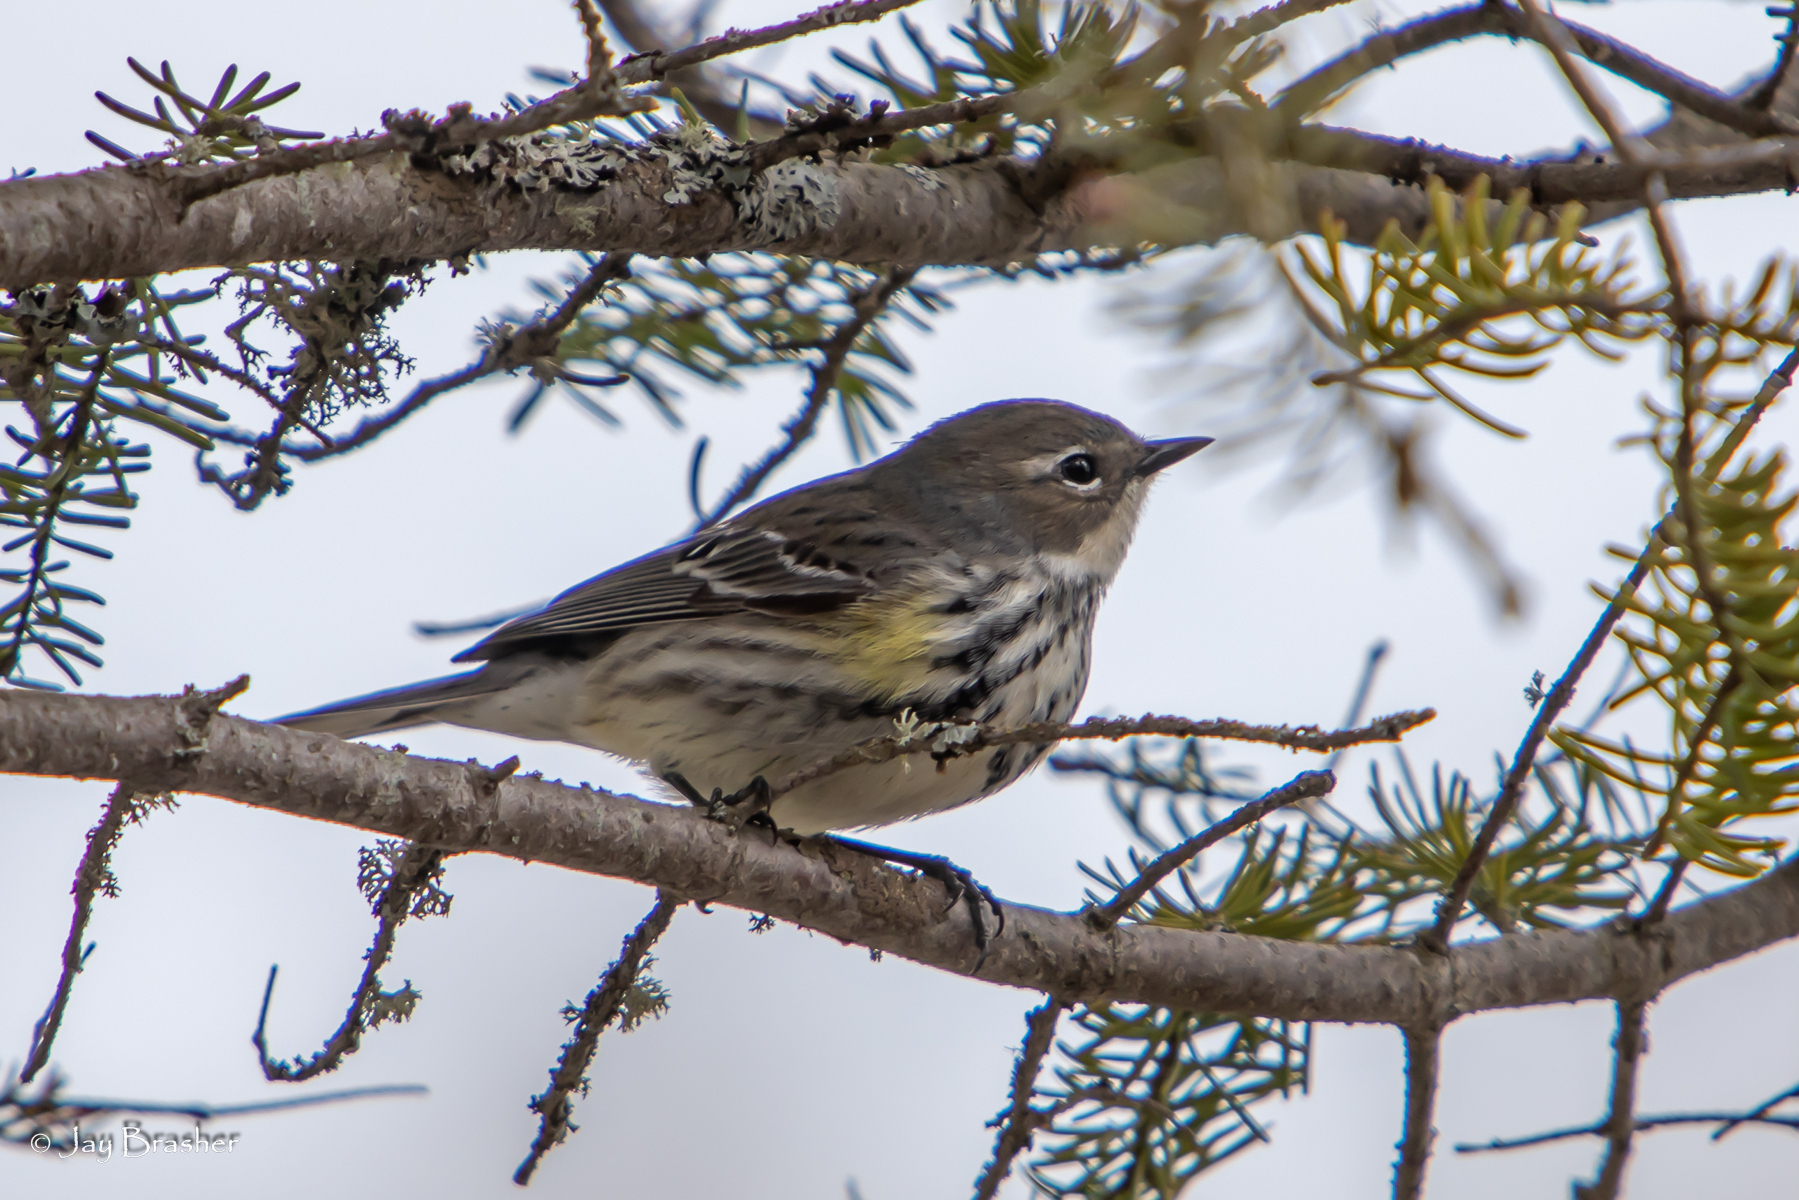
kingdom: Animalia
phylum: Chordata
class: Aves
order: Passeriformes
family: Parulidae
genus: Setophaga
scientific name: Setophaga coronata
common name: Myrtle warbler
